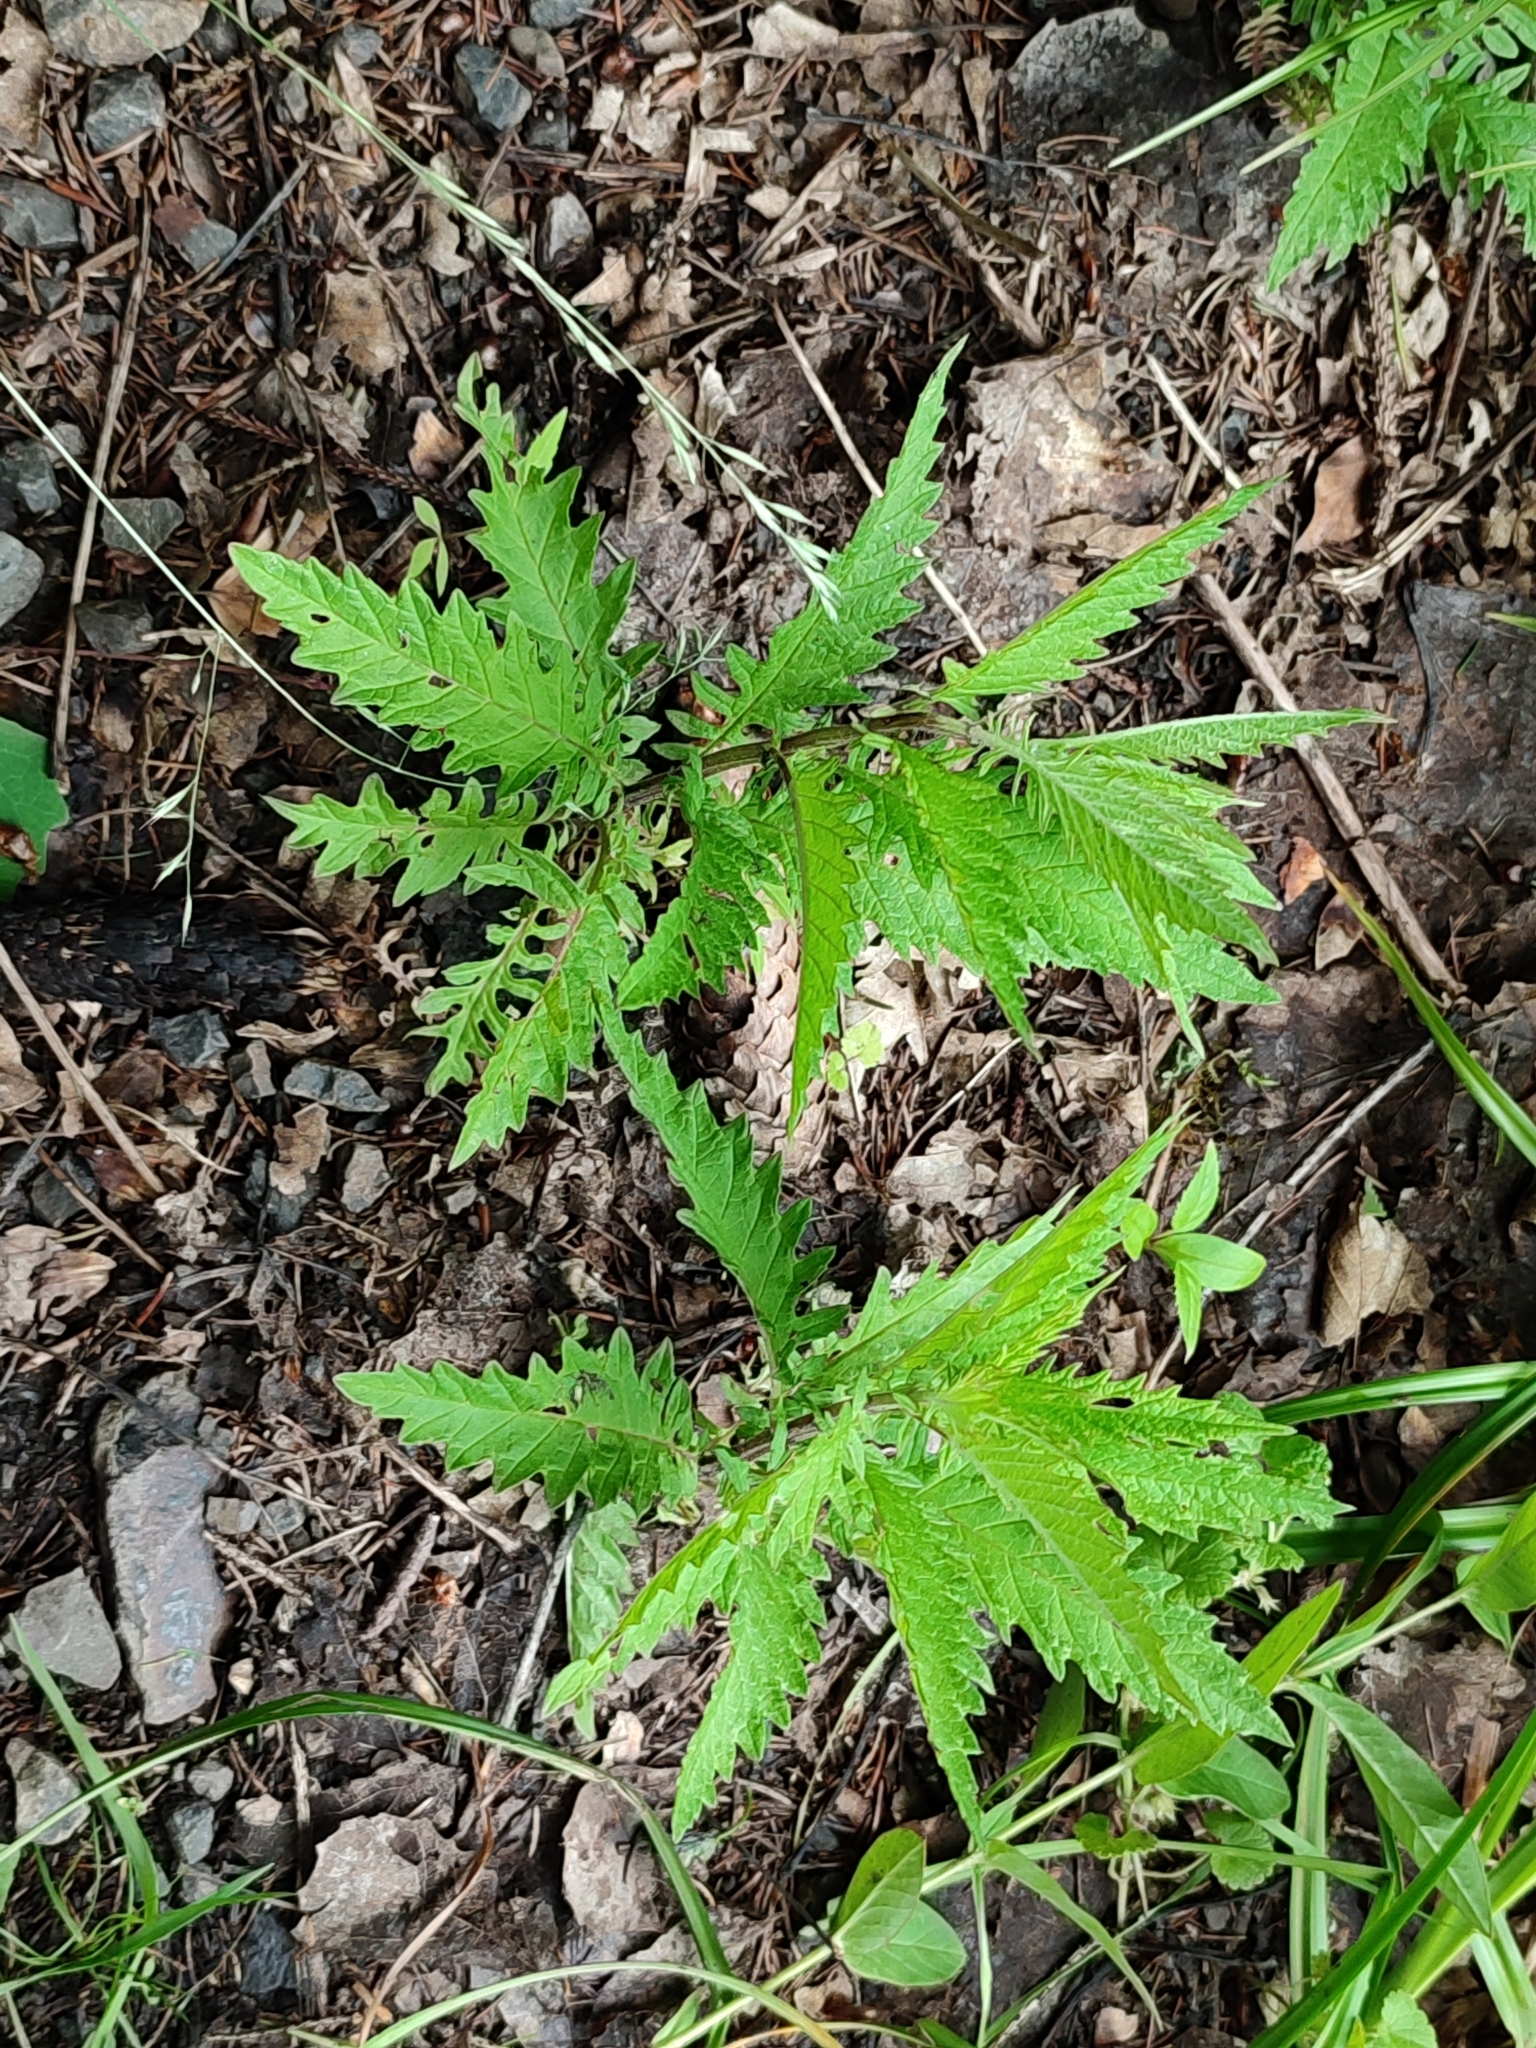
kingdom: Plantae
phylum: Tracheophyta
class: Magnoliopsida
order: Lamiales
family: Lamiaceae
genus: Lycopus
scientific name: Lycopus europaeus
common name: European bugleweed
